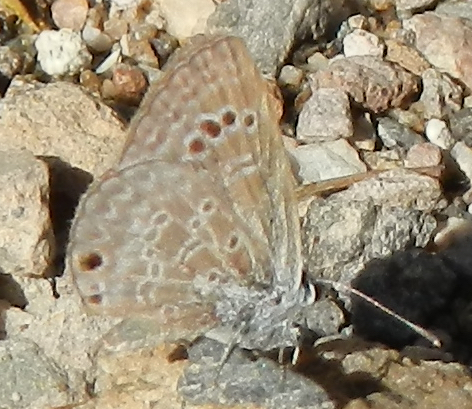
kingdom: Animalia
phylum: Arthropoda
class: Insecta
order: Lepidoptera
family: Lycaenidae
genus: Echinargus
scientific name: Echinargus isola
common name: Reakirt's blue
